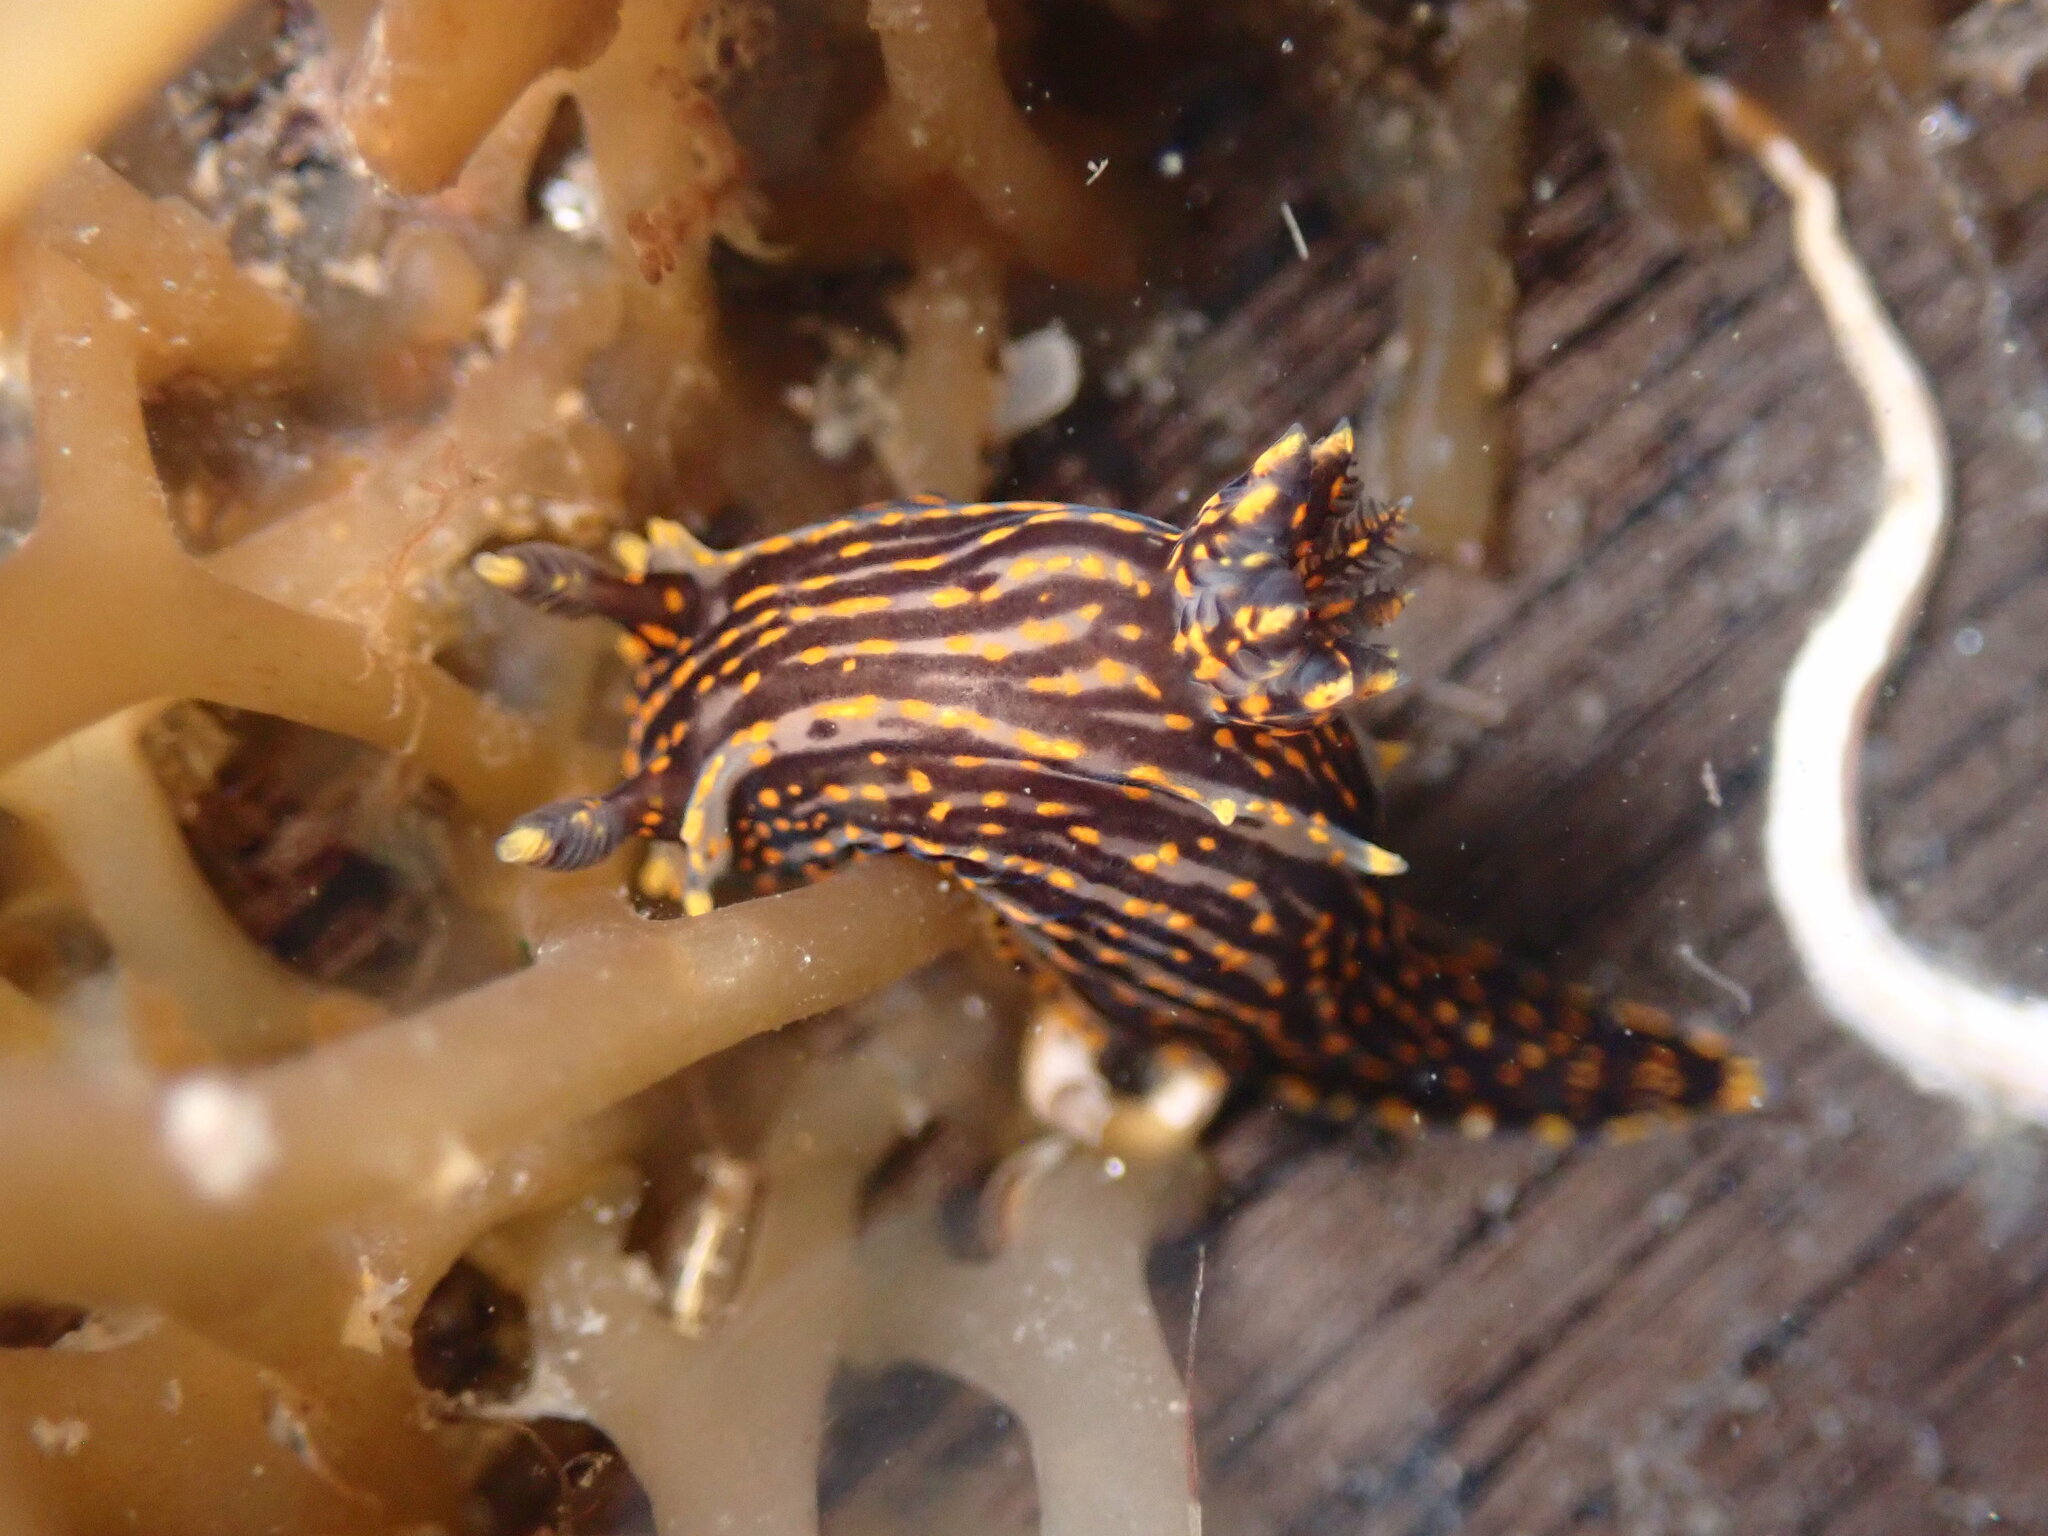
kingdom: Animalia
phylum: Mollusca
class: Gastropoda
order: Nudibranchia
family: Polyceridae
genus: Polycera
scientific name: Polycera atra
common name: Orange-spike polycera
